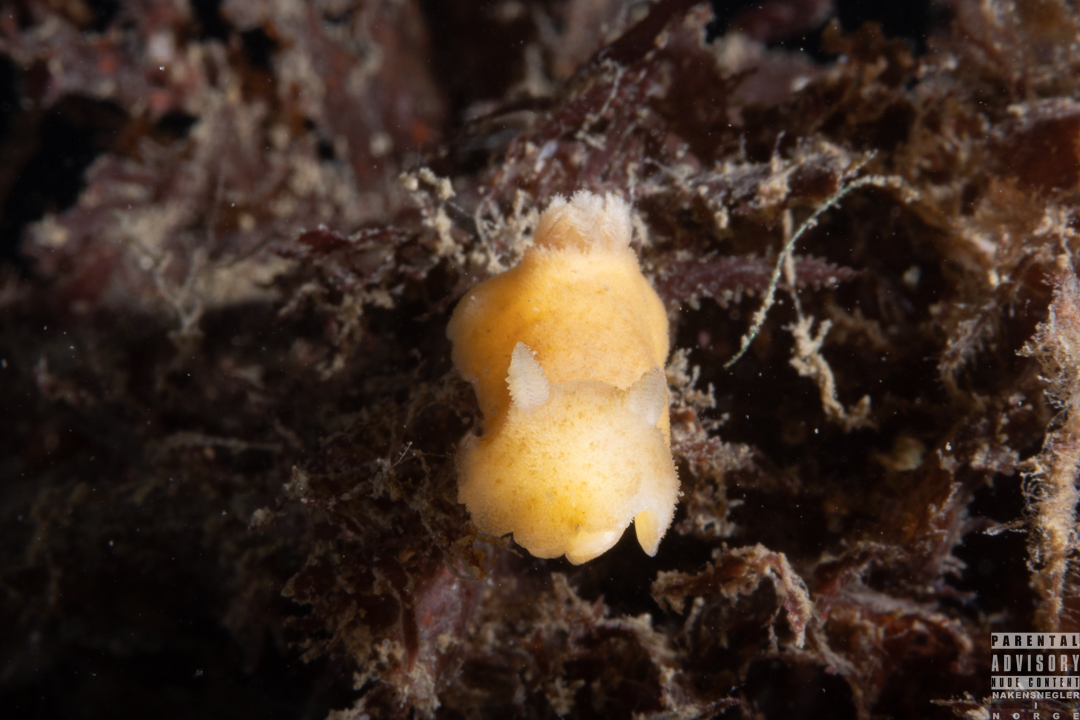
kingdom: Animalia
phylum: Mollusca
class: Gastropoda
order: Nudibranchia
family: Discodorididae
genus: Jorunna
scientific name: Jorunna tomentosa
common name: Grey sea slug
